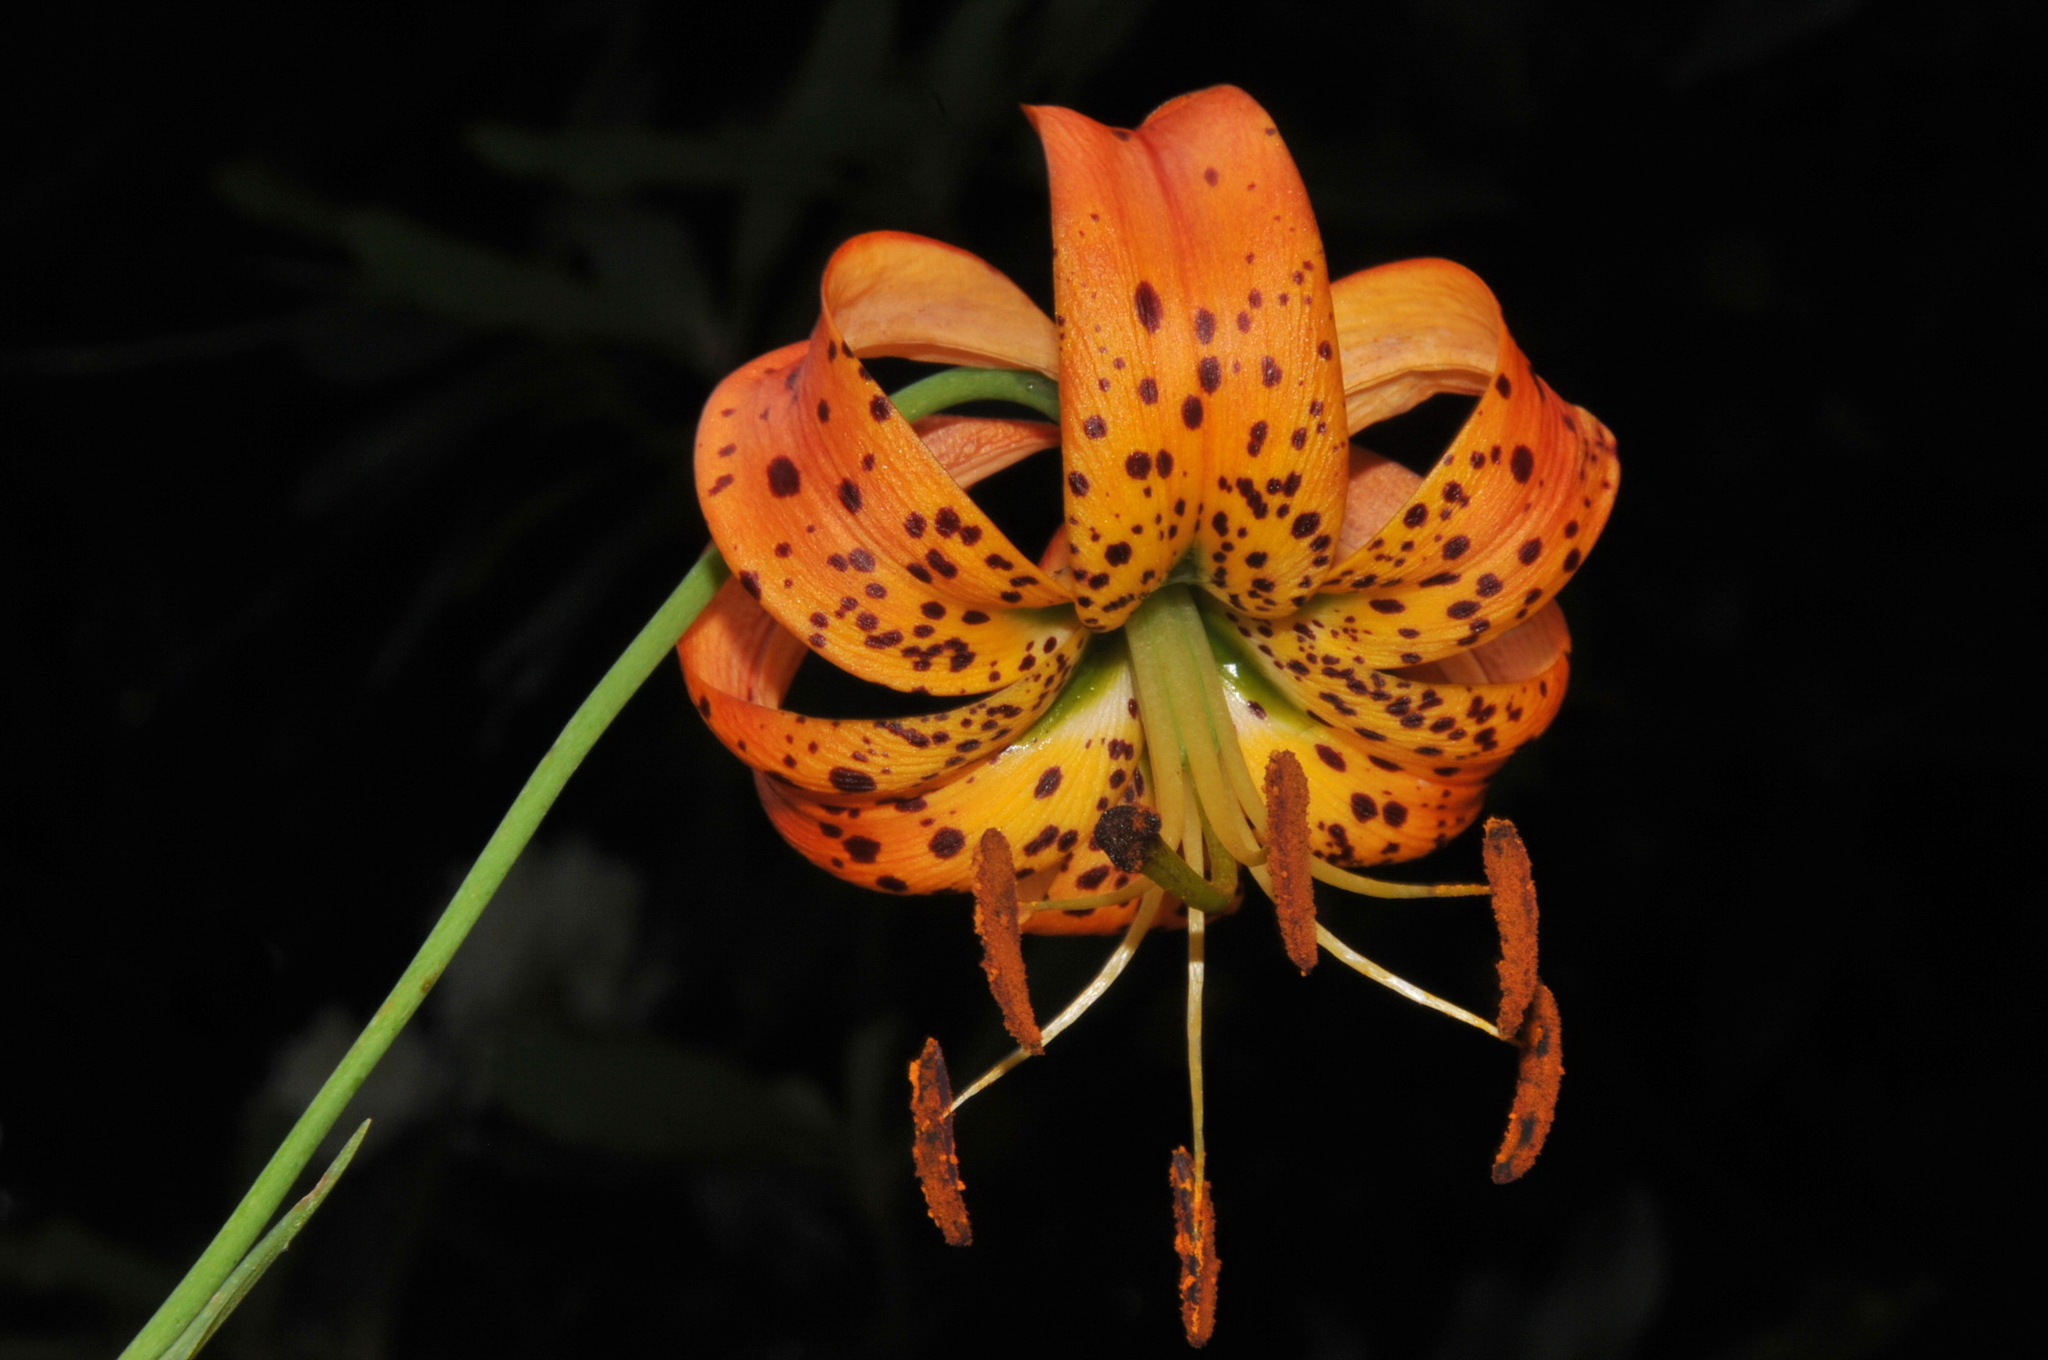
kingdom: Plantae
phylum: Tracheophyta
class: Liliopsida
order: Liliales
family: Liliaceae
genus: Lilium
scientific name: Lilium superbum
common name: American turk's-cap lily
